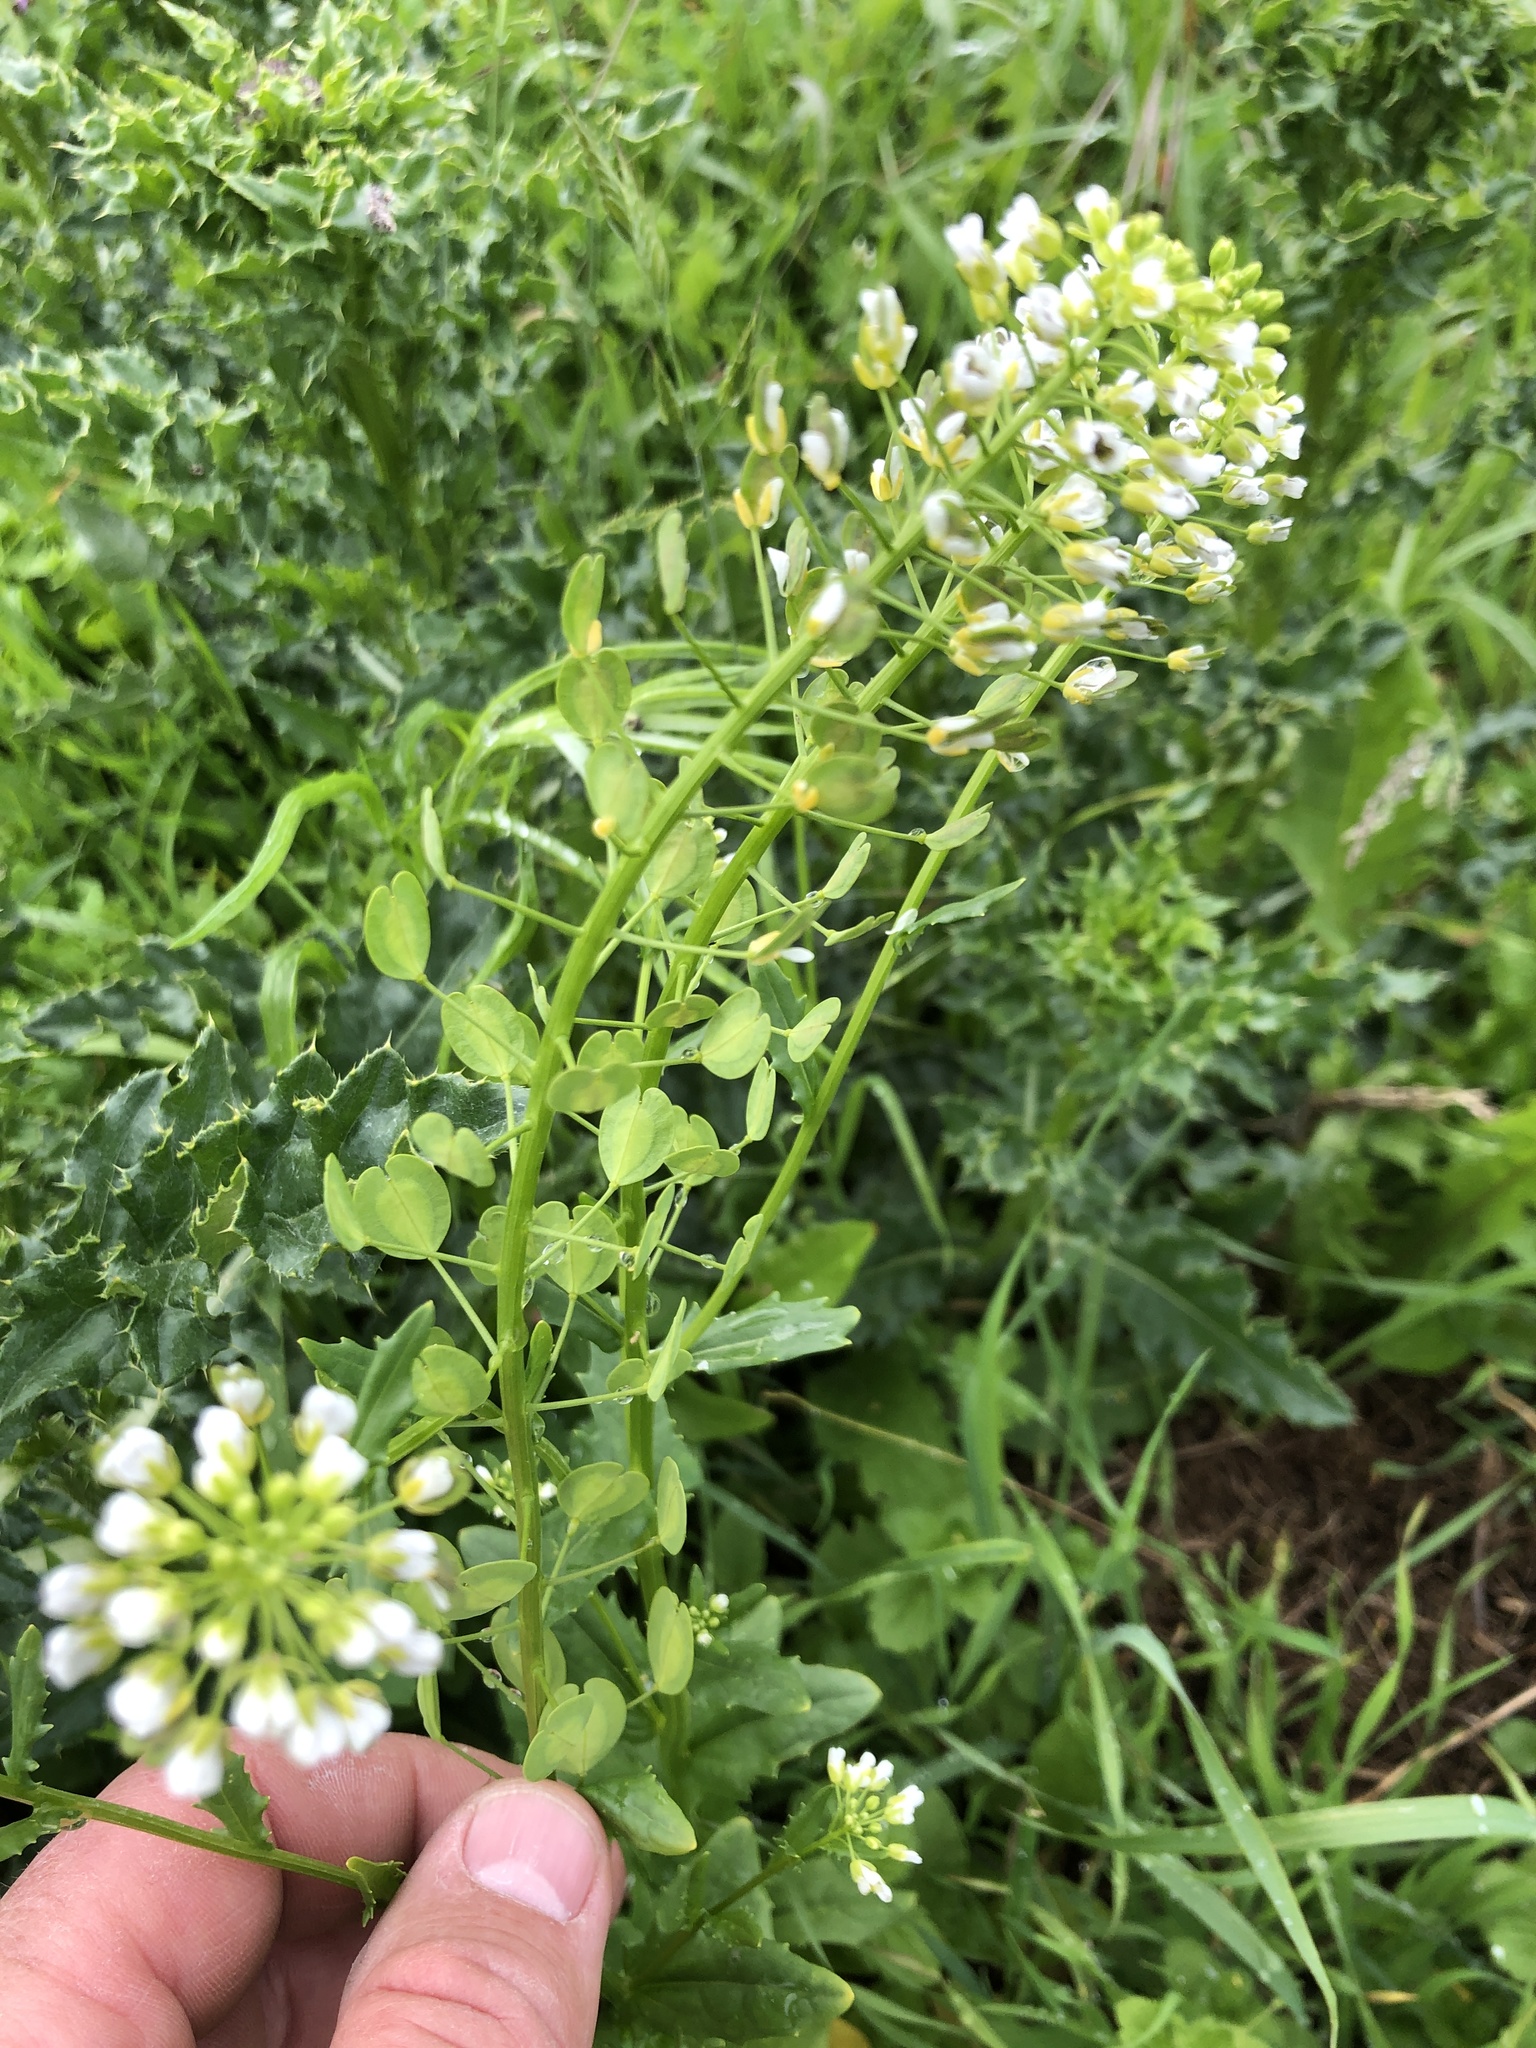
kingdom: Plantae
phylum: Tracheophyta
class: Magnoliopsida
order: Brassicales
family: Brassicaceae
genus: Thlaspi
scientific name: Thlaspi arvense
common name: Field pennycress
